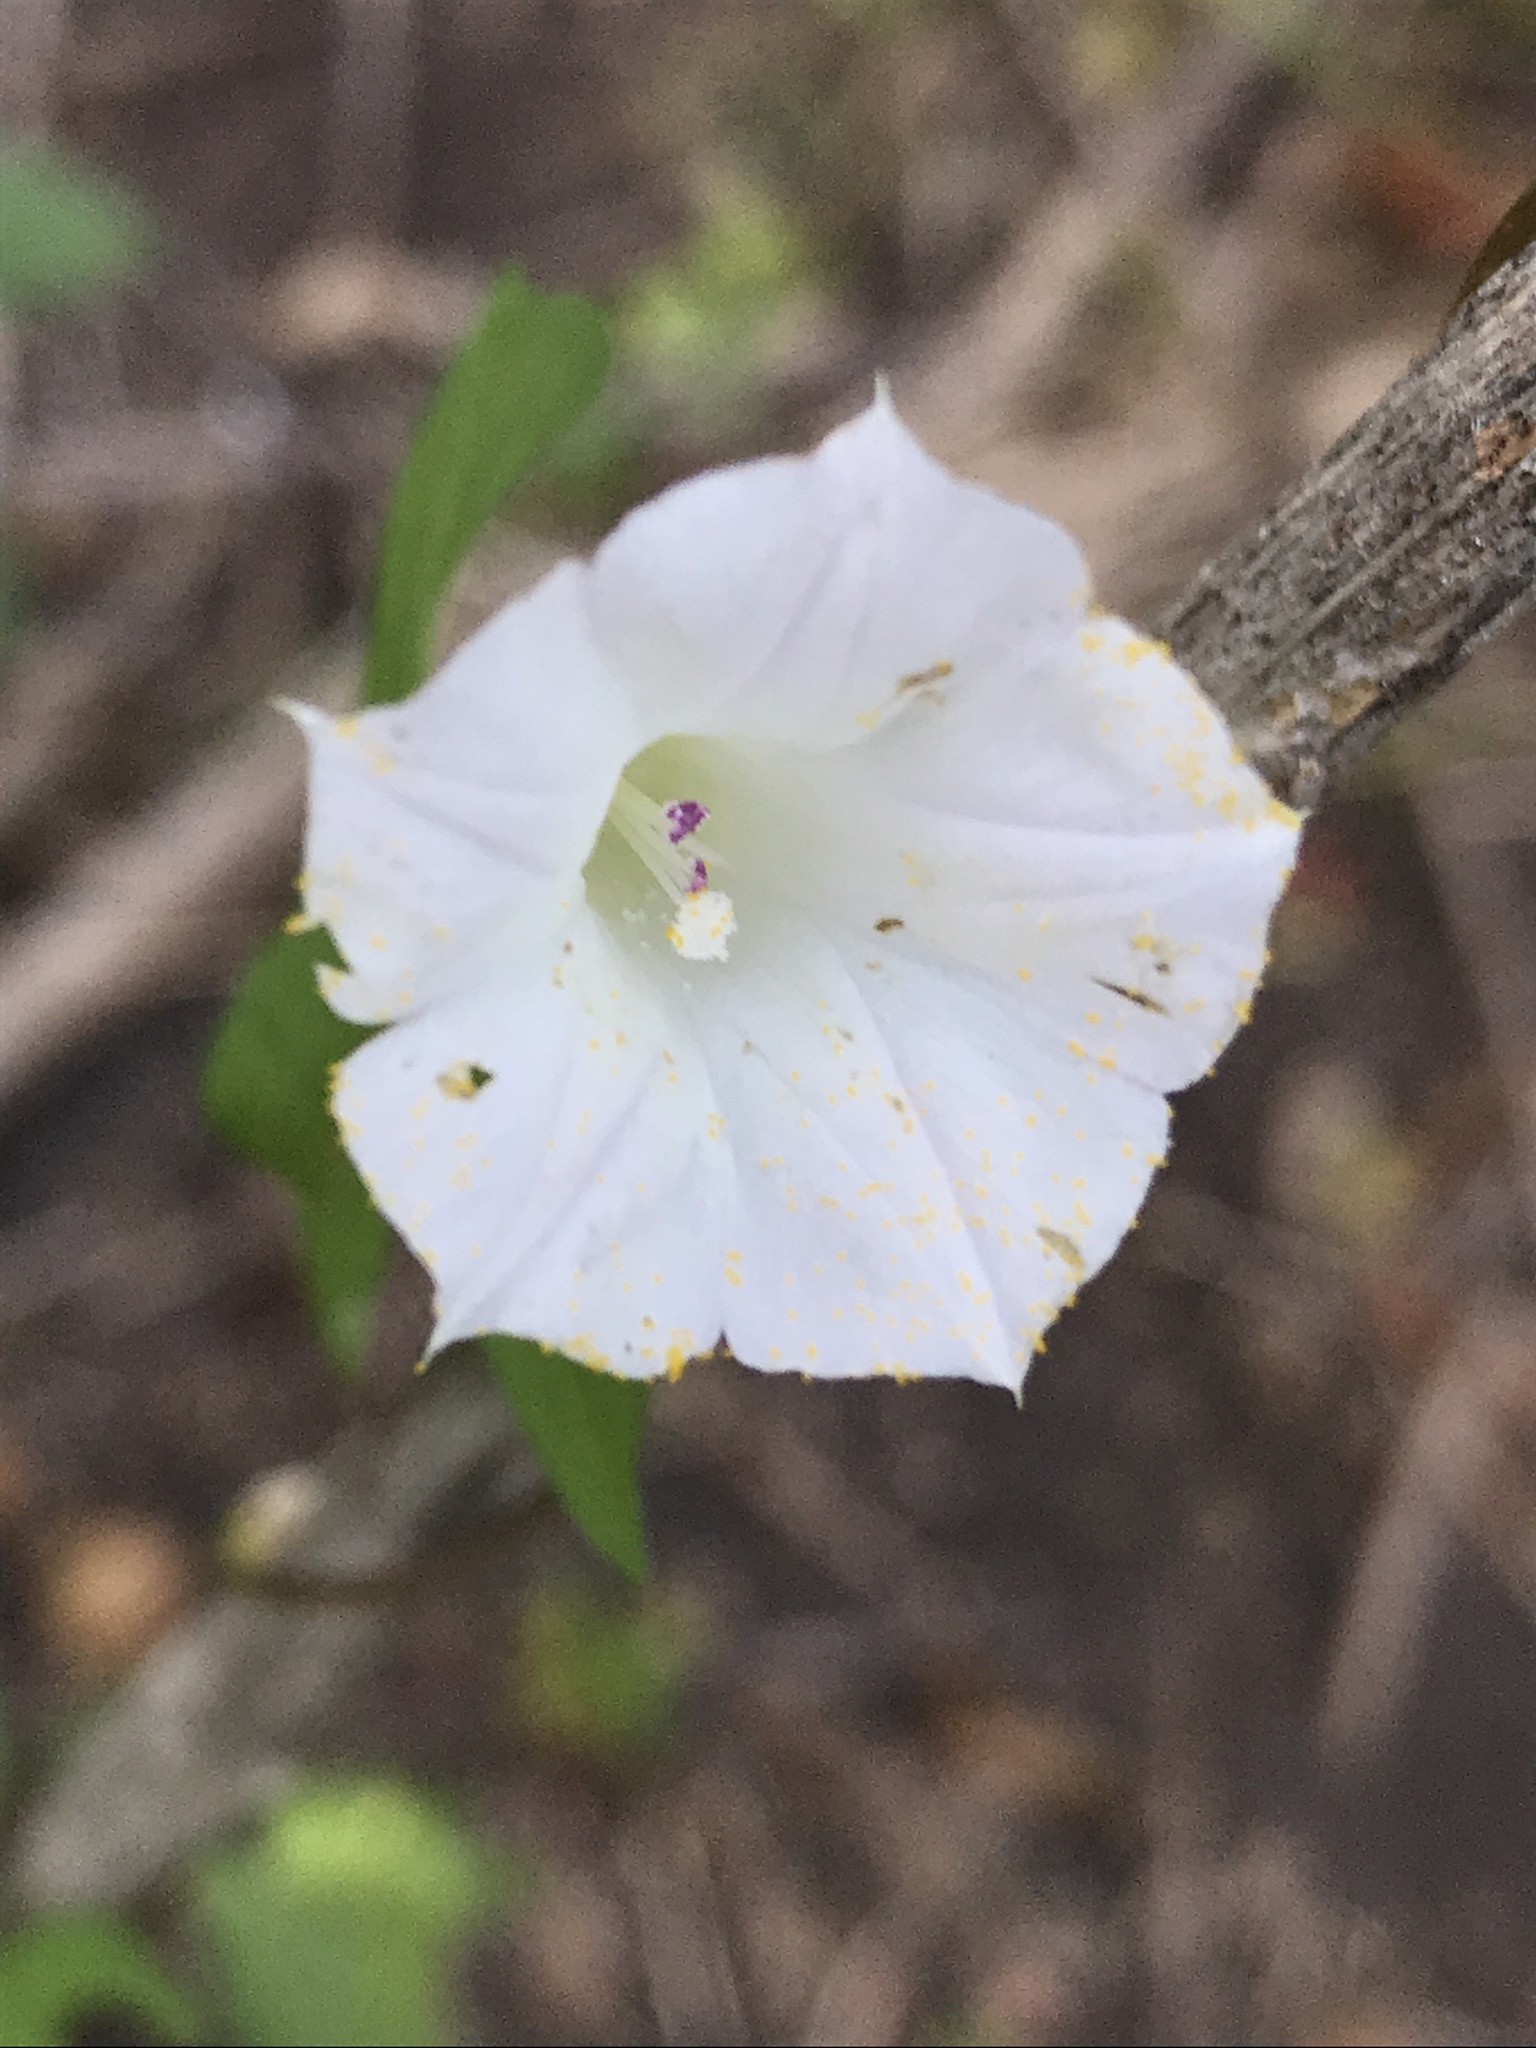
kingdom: Plantae
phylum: Tracheophyta
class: Magnoliopsida
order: Solanales
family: Convolvulaceae
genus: Ipomoea
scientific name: Ipomoea lacunosa
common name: White morning-glory
